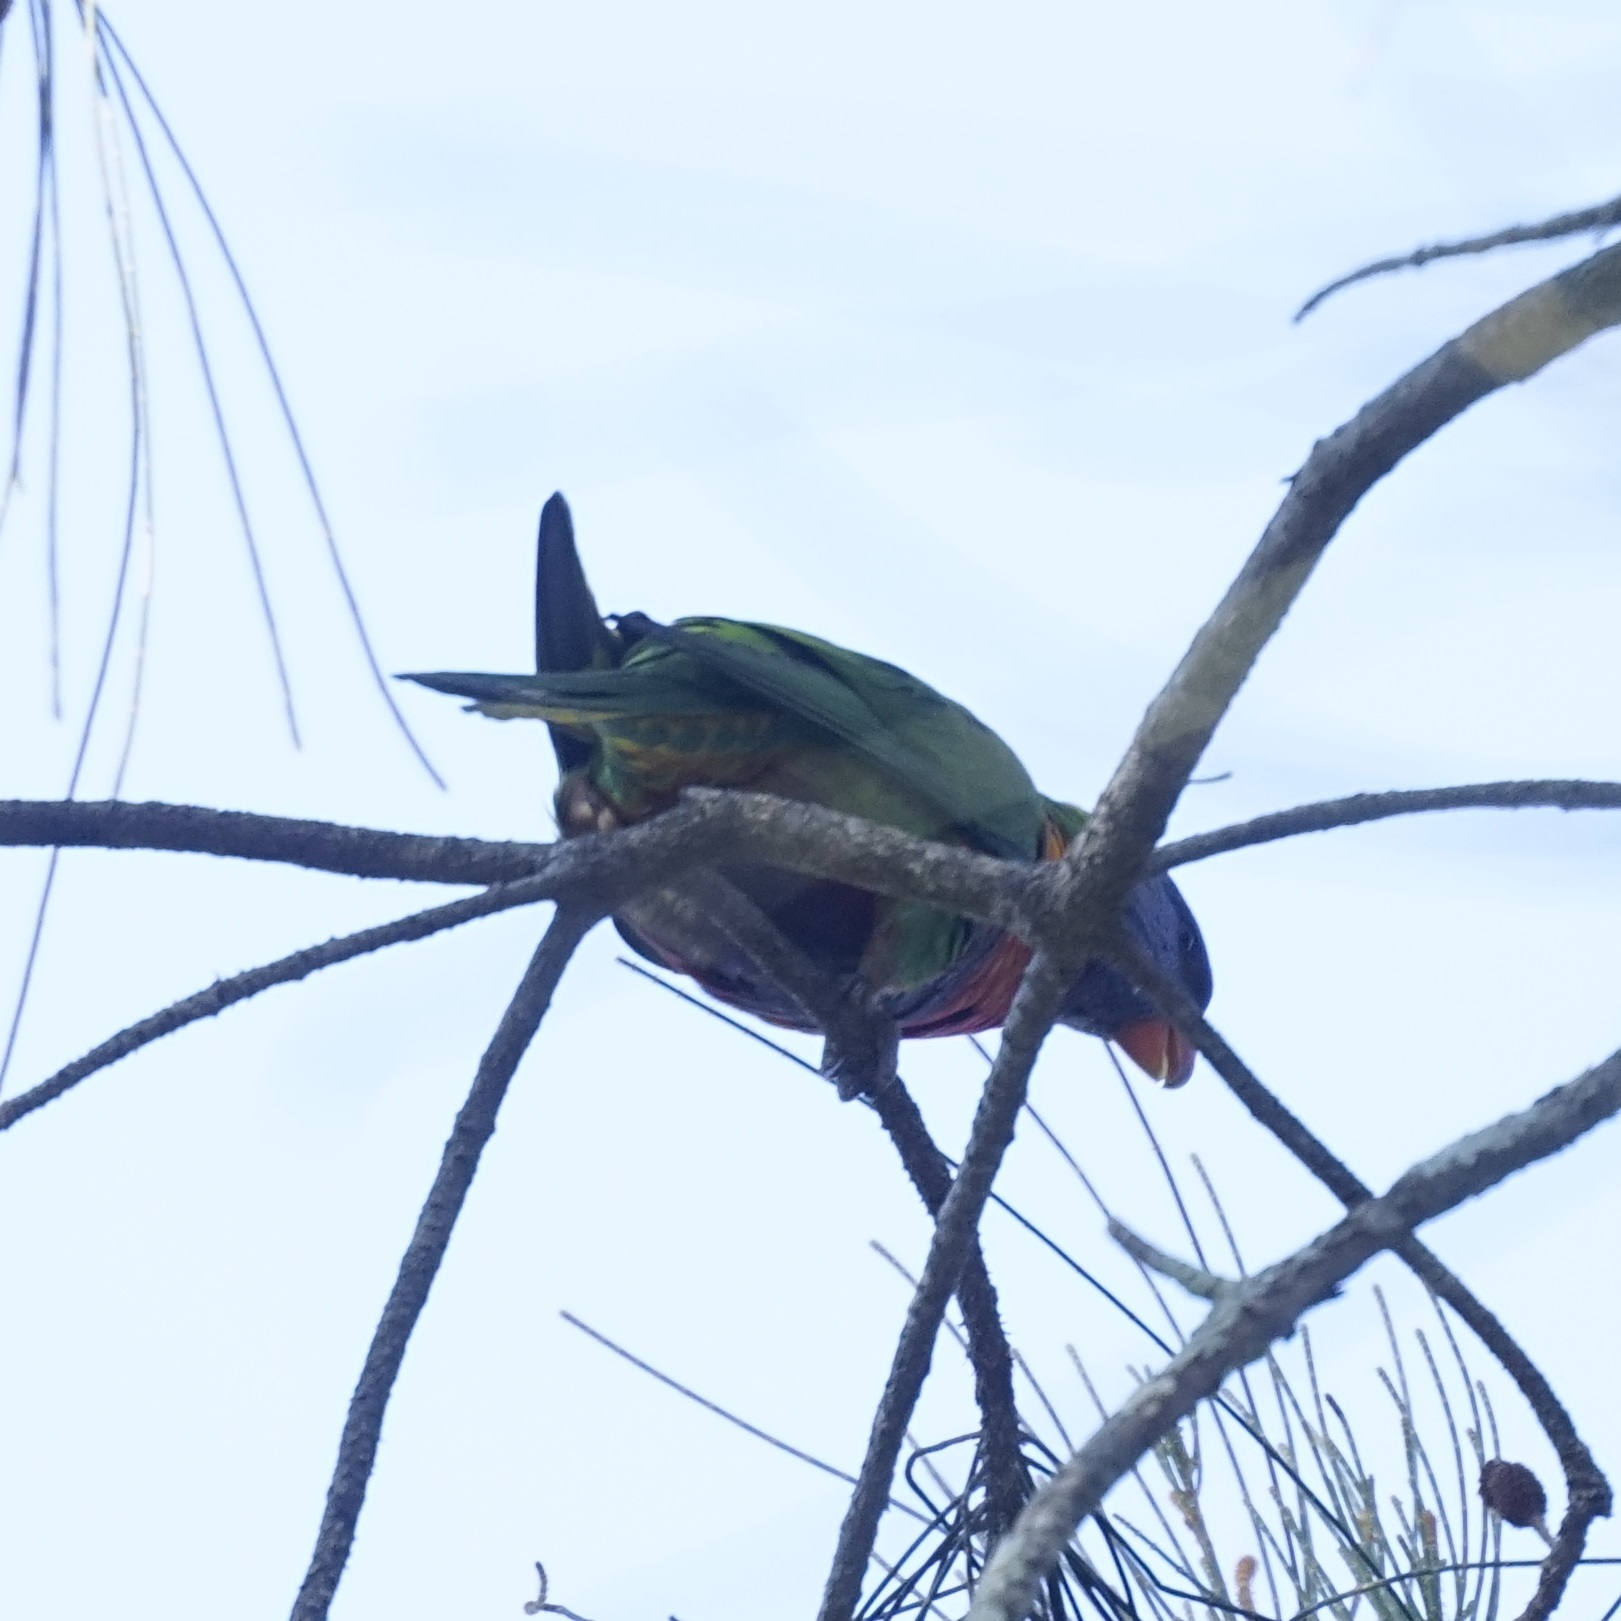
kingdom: Animalia
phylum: Chordata
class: Aves
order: Psittaciformes
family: Psittacidae
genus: Trichoglossus
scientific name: Trichoglossus haematodus
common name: Coconut lorikeet
